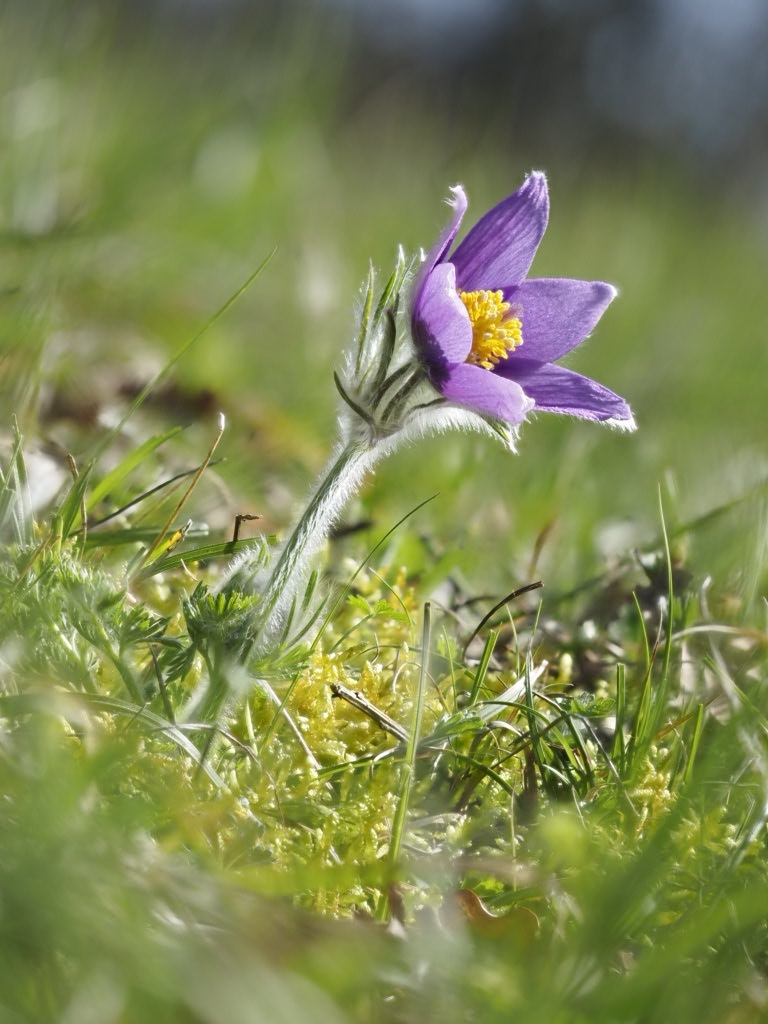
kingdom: Plantae
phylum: Tracheophyta
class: Magnoliopsida
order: Ranunculales
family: Ranunculaceae
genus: Pulsatilla
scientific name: Pulsatilla vulgaris
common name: Pasqueflower
